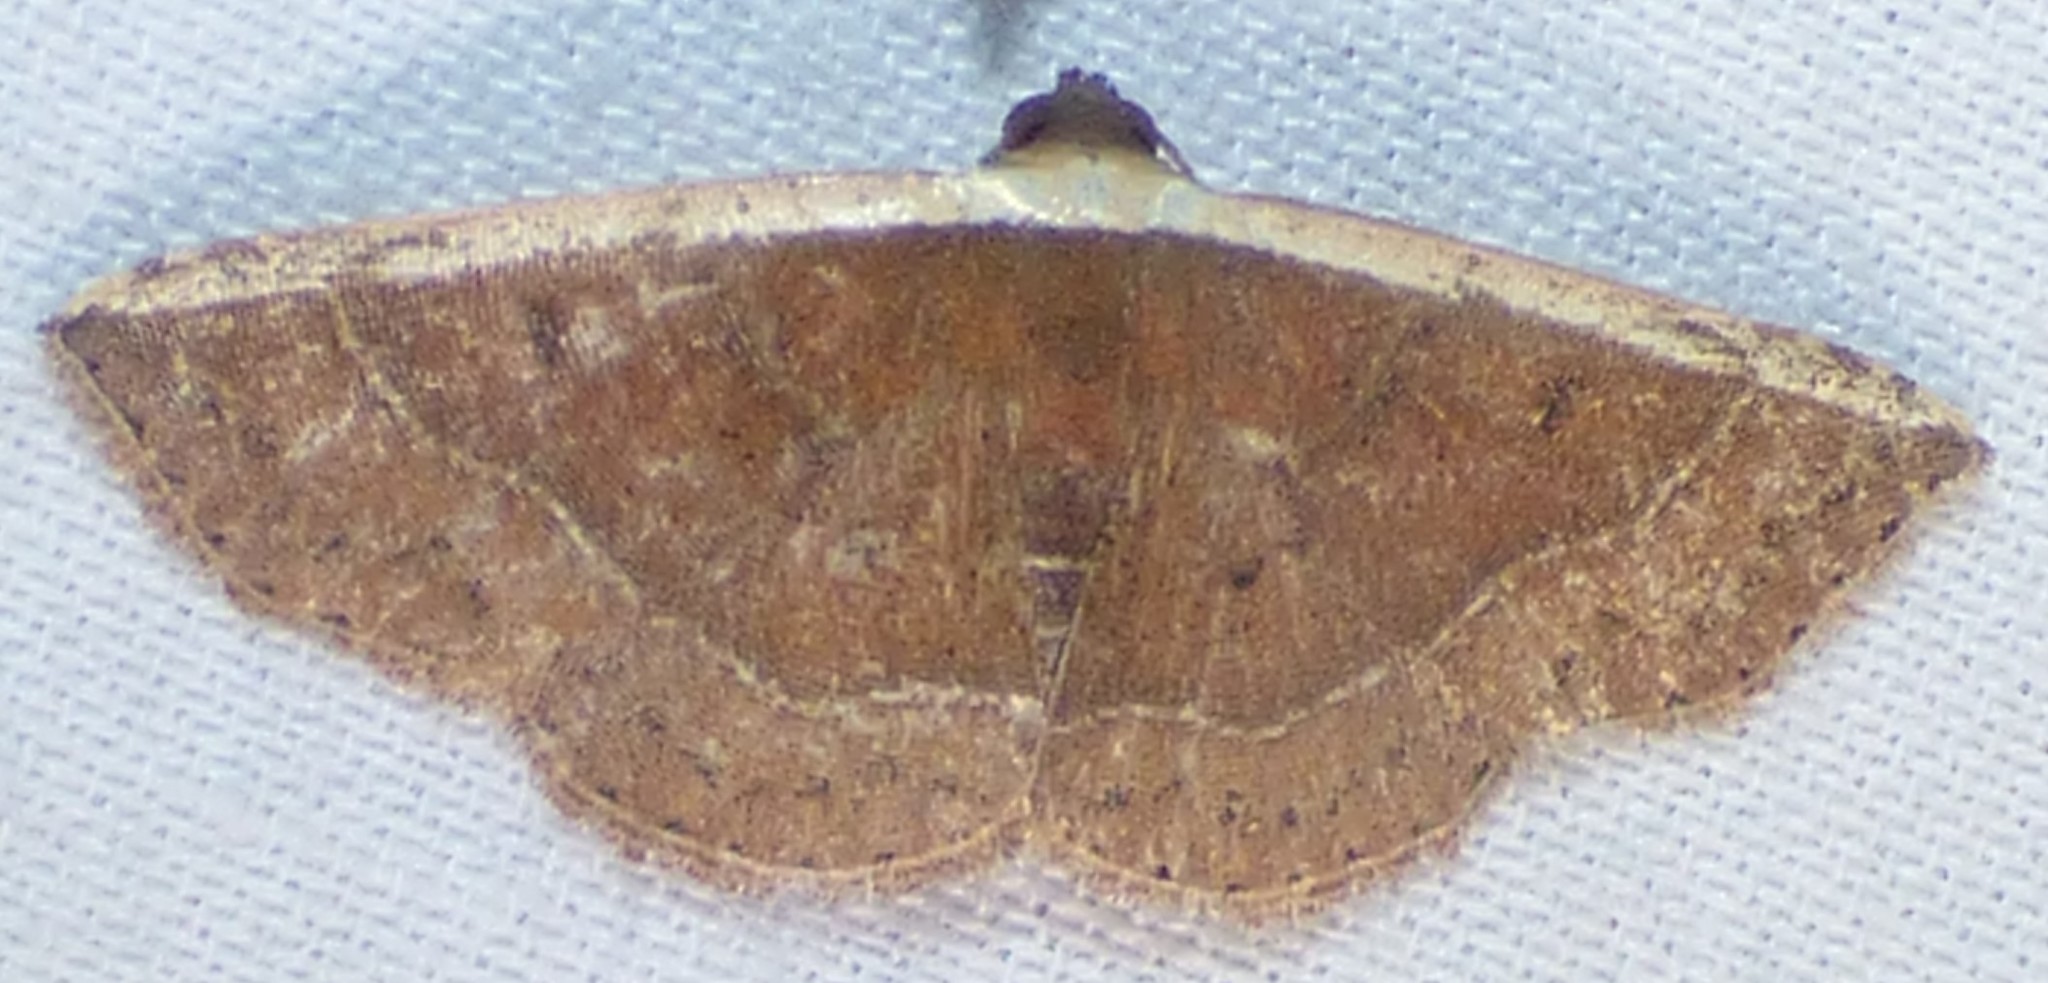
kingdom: Animalia
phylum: Arthropoda
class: Insecta
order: Lepidoptera
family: Noctuidae
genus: Ozarba
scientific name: Ozarba albocostaliata
